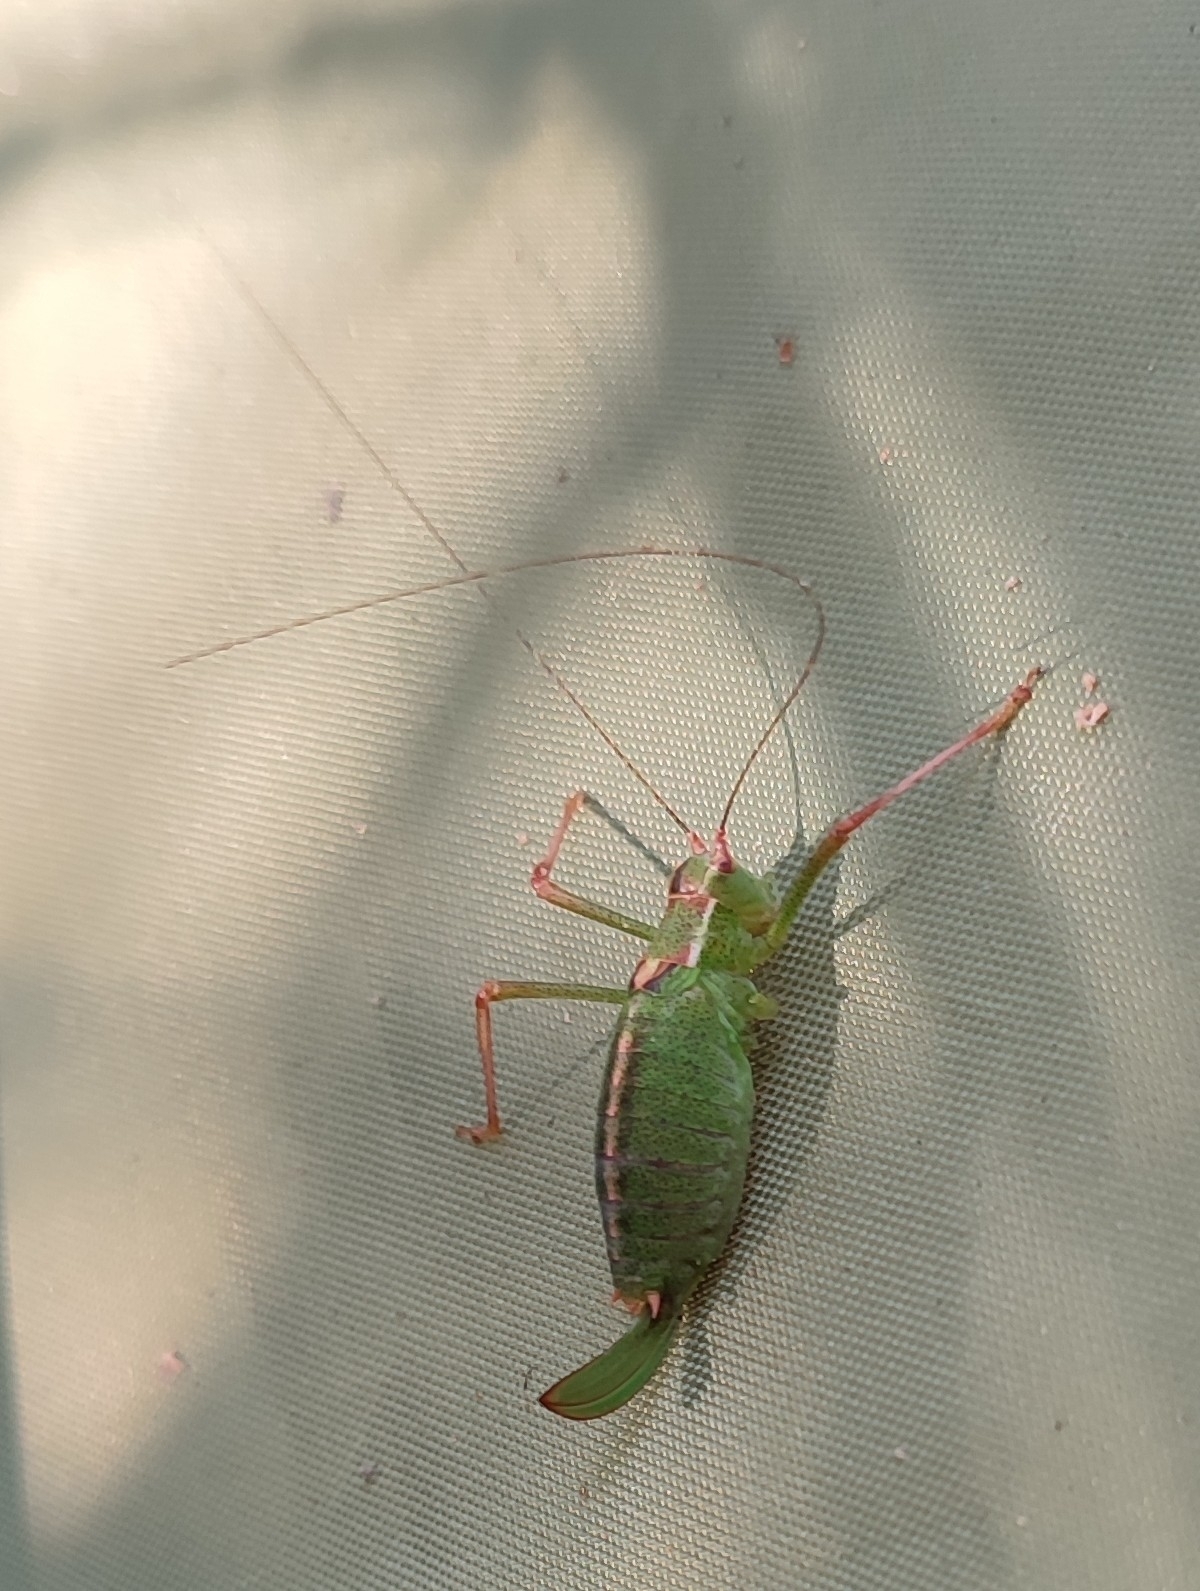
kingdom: Animalia
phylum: Arthropoda
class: Insecta
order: Orthoptera
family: Tettigoniidae
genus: Leptophyes
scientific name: Leptophyes punctatissima
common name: Speckled bush-cricket
